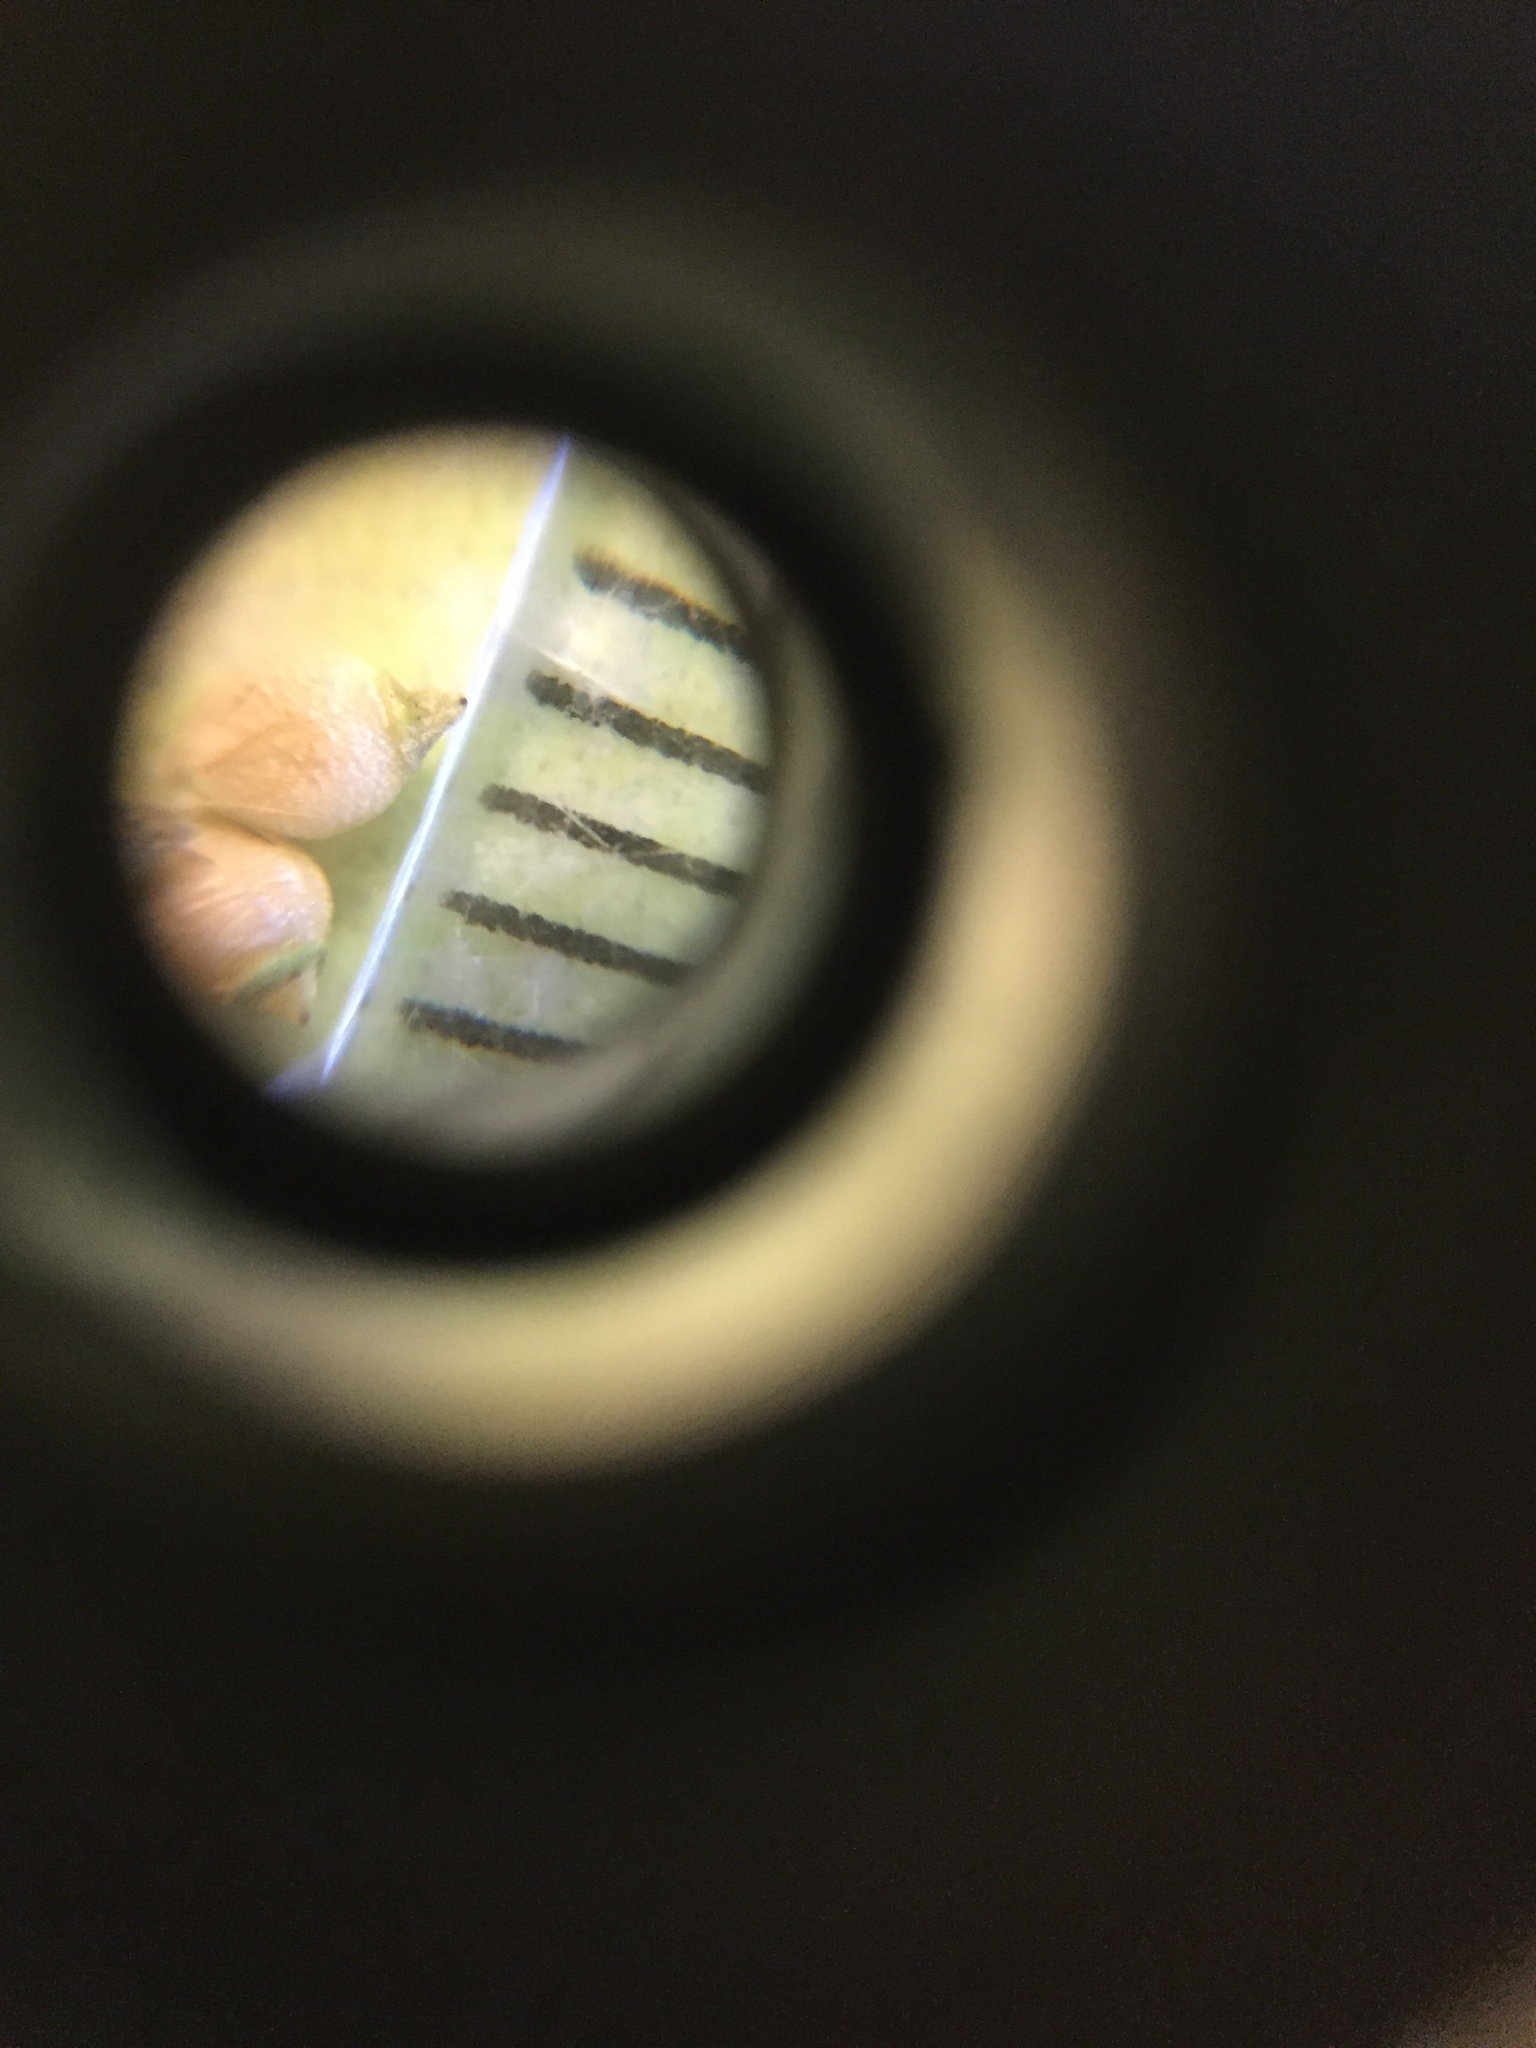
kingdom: Plantae
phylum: Tracheophyta
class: Liliopsida
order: Poales
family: Cyperaceae
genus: Rhynchospora
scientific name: Rhynchospora globularis
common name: Globe beaksedge
